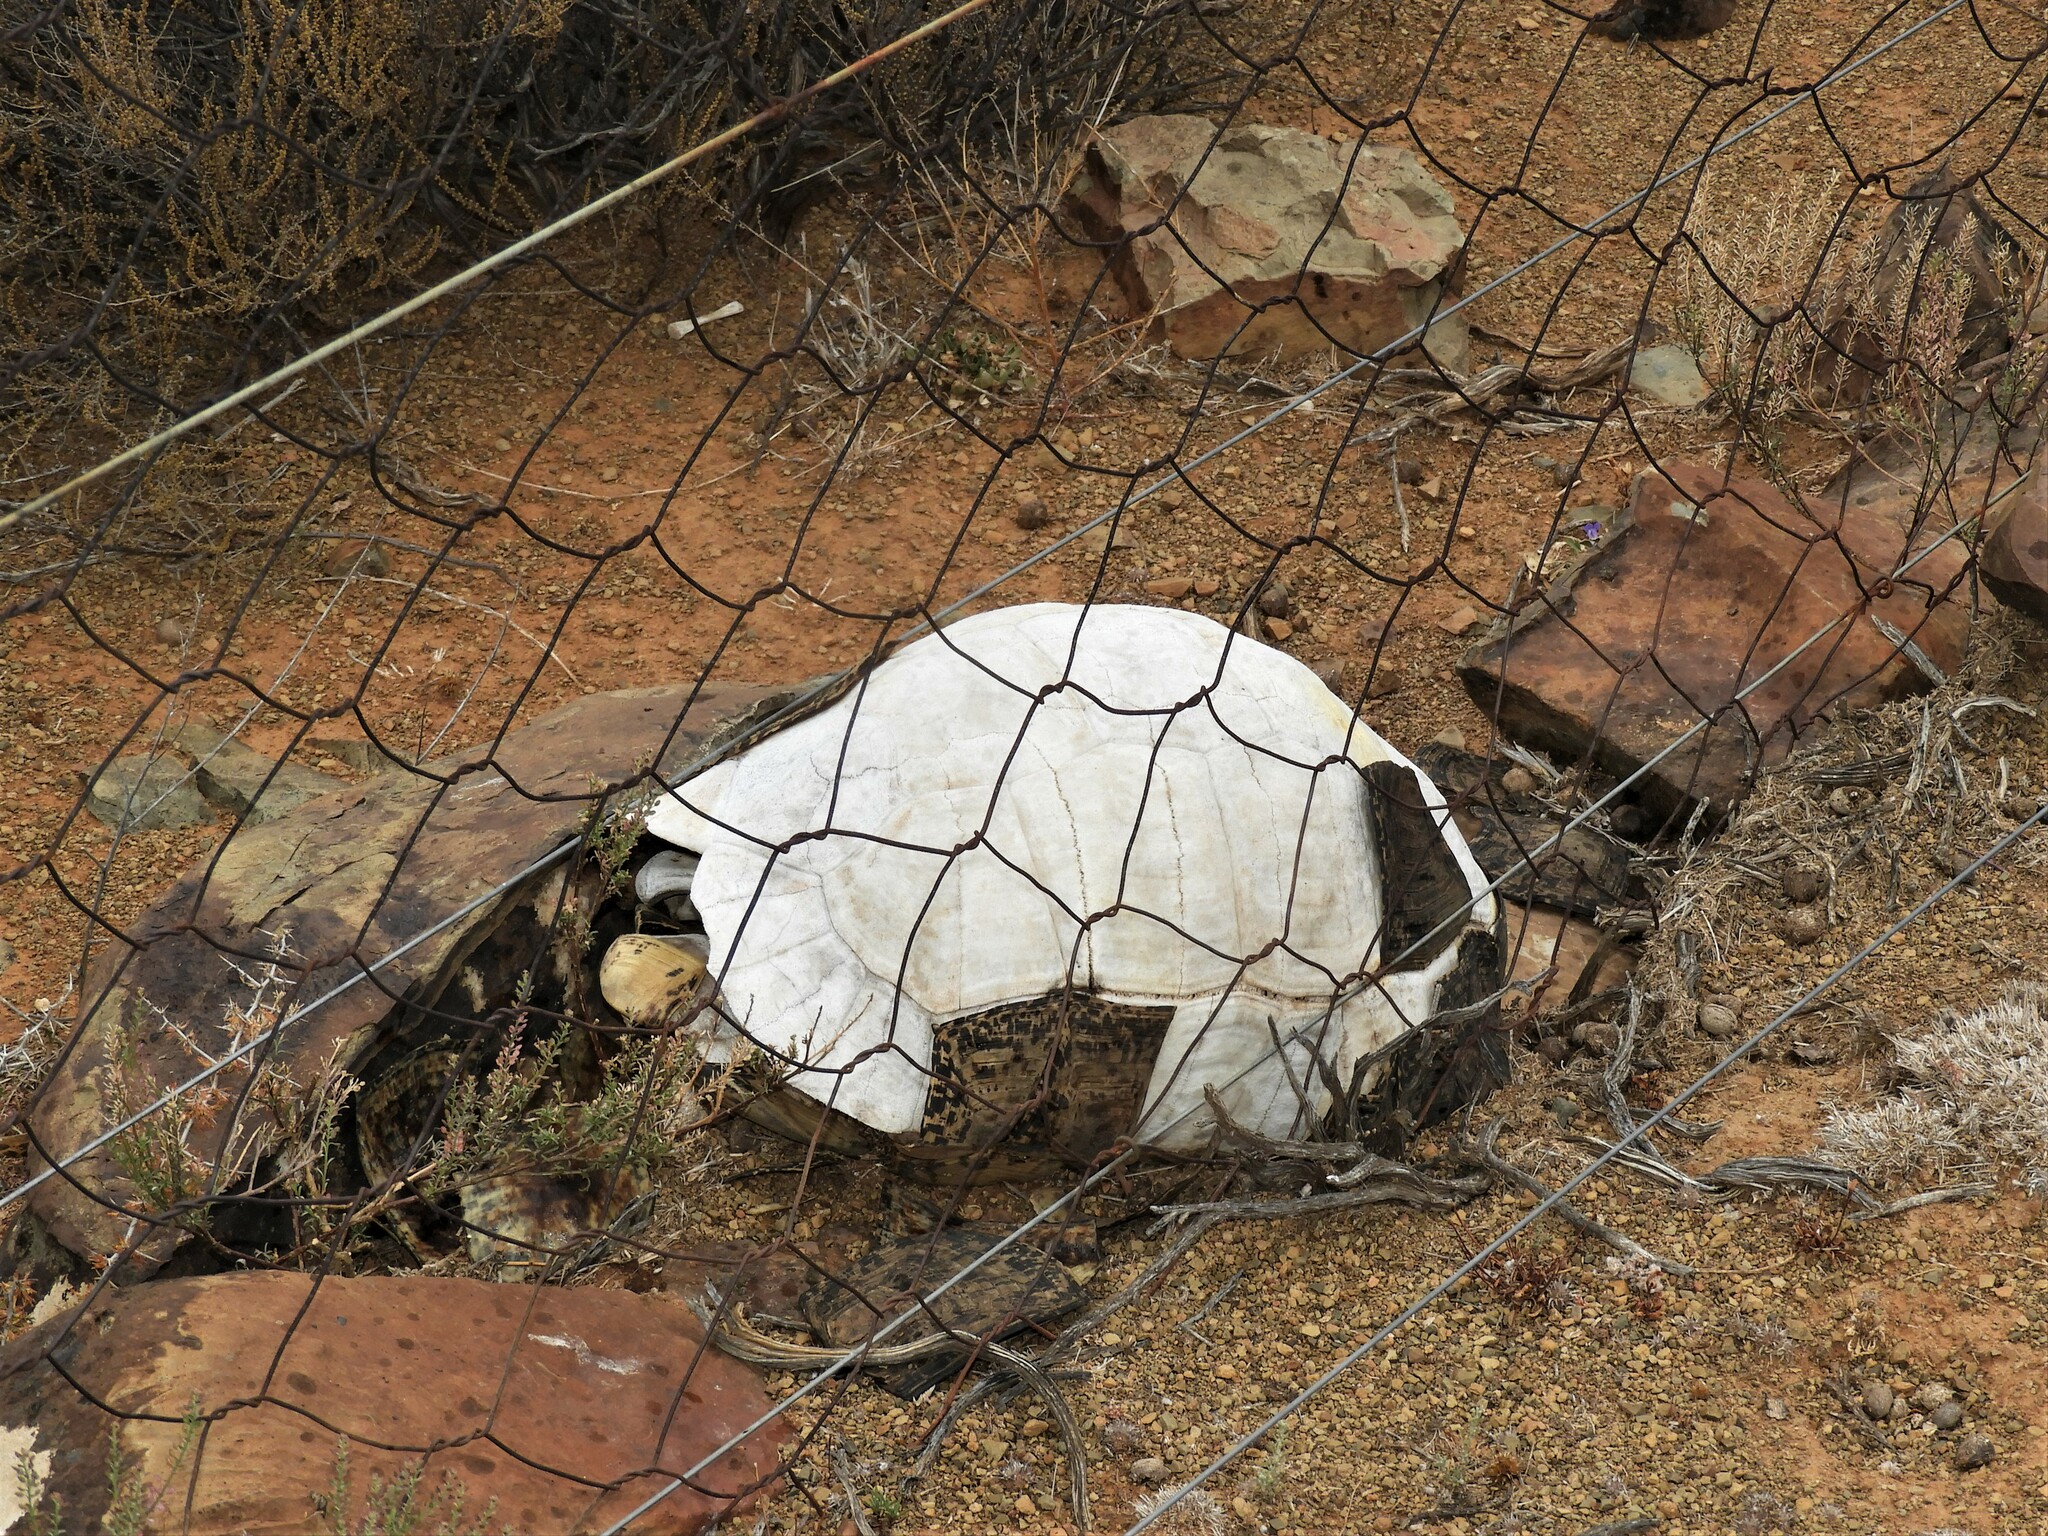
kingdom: Animalia
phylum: Chordata
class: Testudines
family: Testudinidae
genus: Stigmochelys
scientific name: Stigmochelys pardalis
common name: Leopard tortoise
